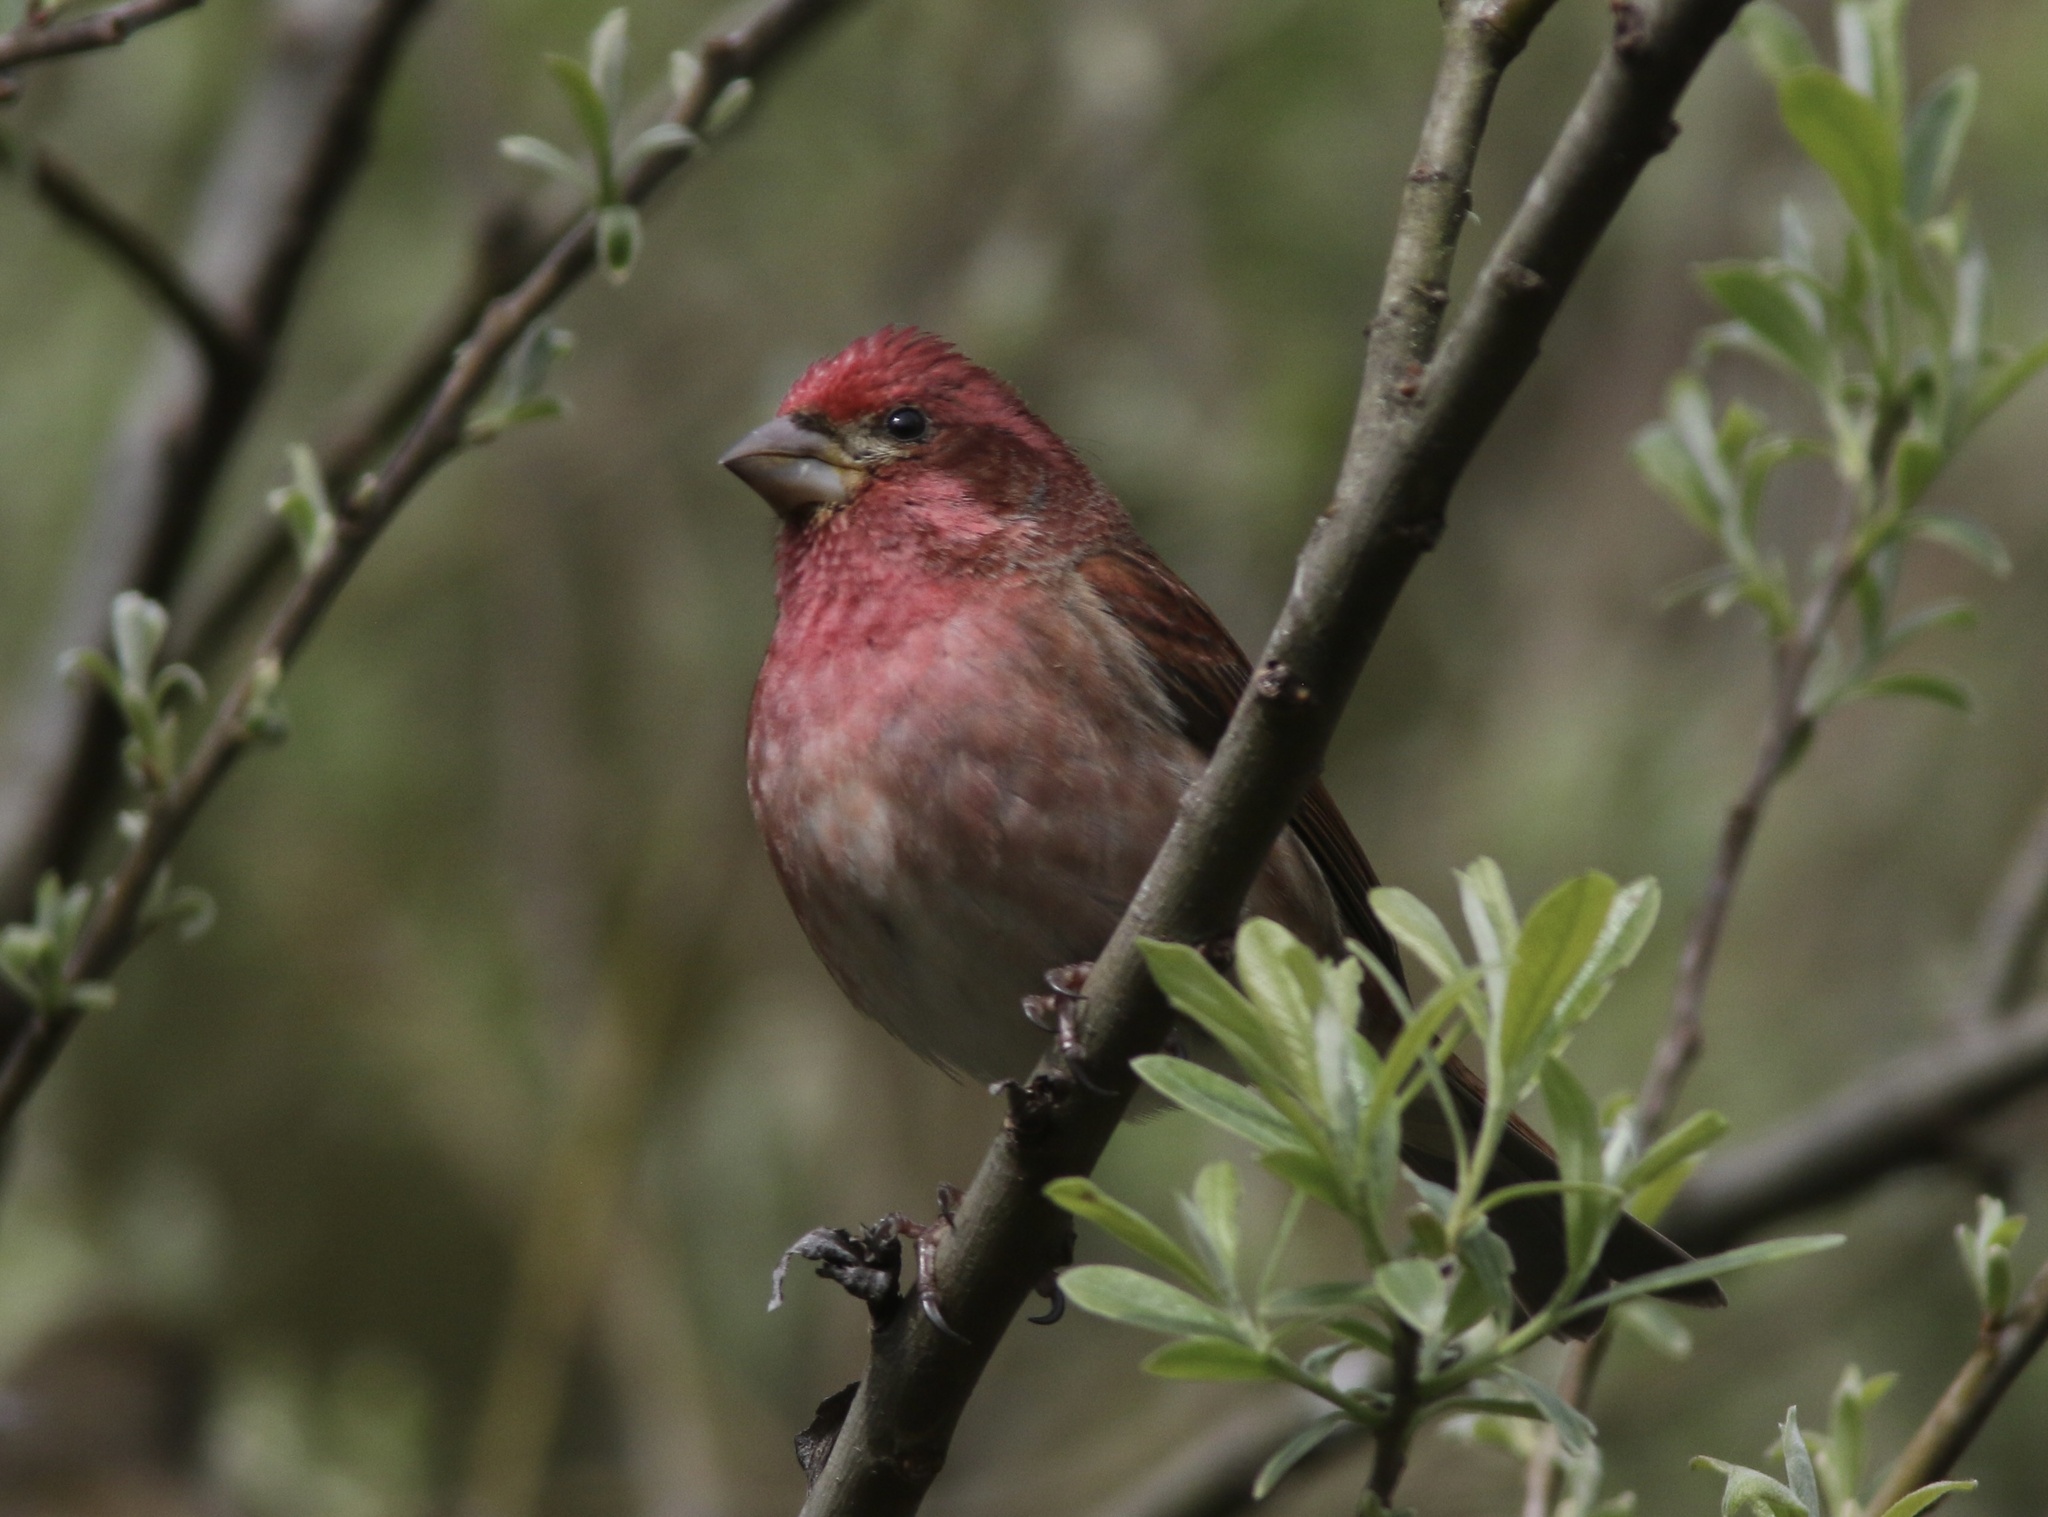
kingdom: Animalia
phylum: Chordata
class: Aves
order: Passeriformes
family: Fringillidae
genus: Haemorhous
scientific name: Haemorhous purpureus
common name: Purple finch
